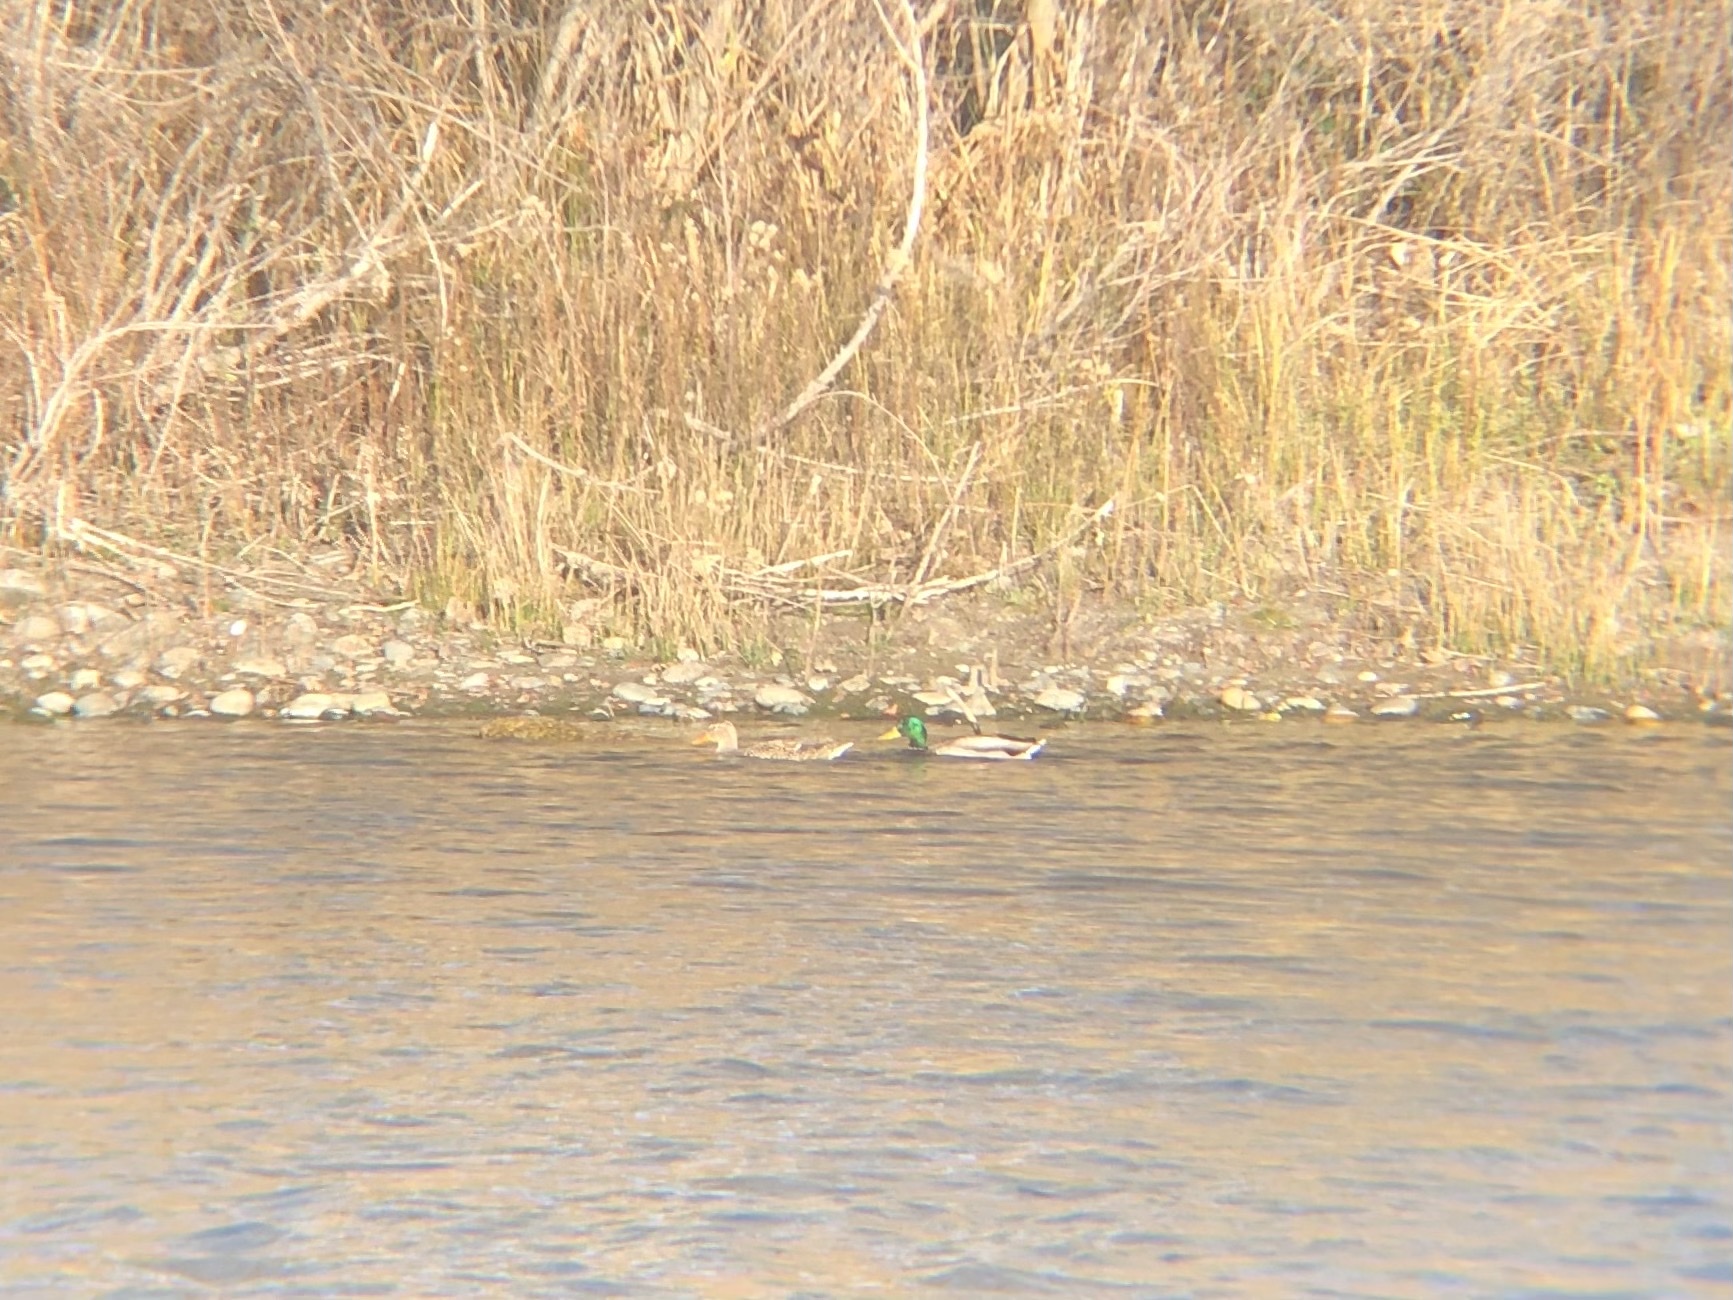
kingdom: Animalia
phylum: Chordata
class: Aves
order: Anseriformes
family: Anatidae
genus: Anas
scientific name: Anas platyrhynchos
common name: Mallard
